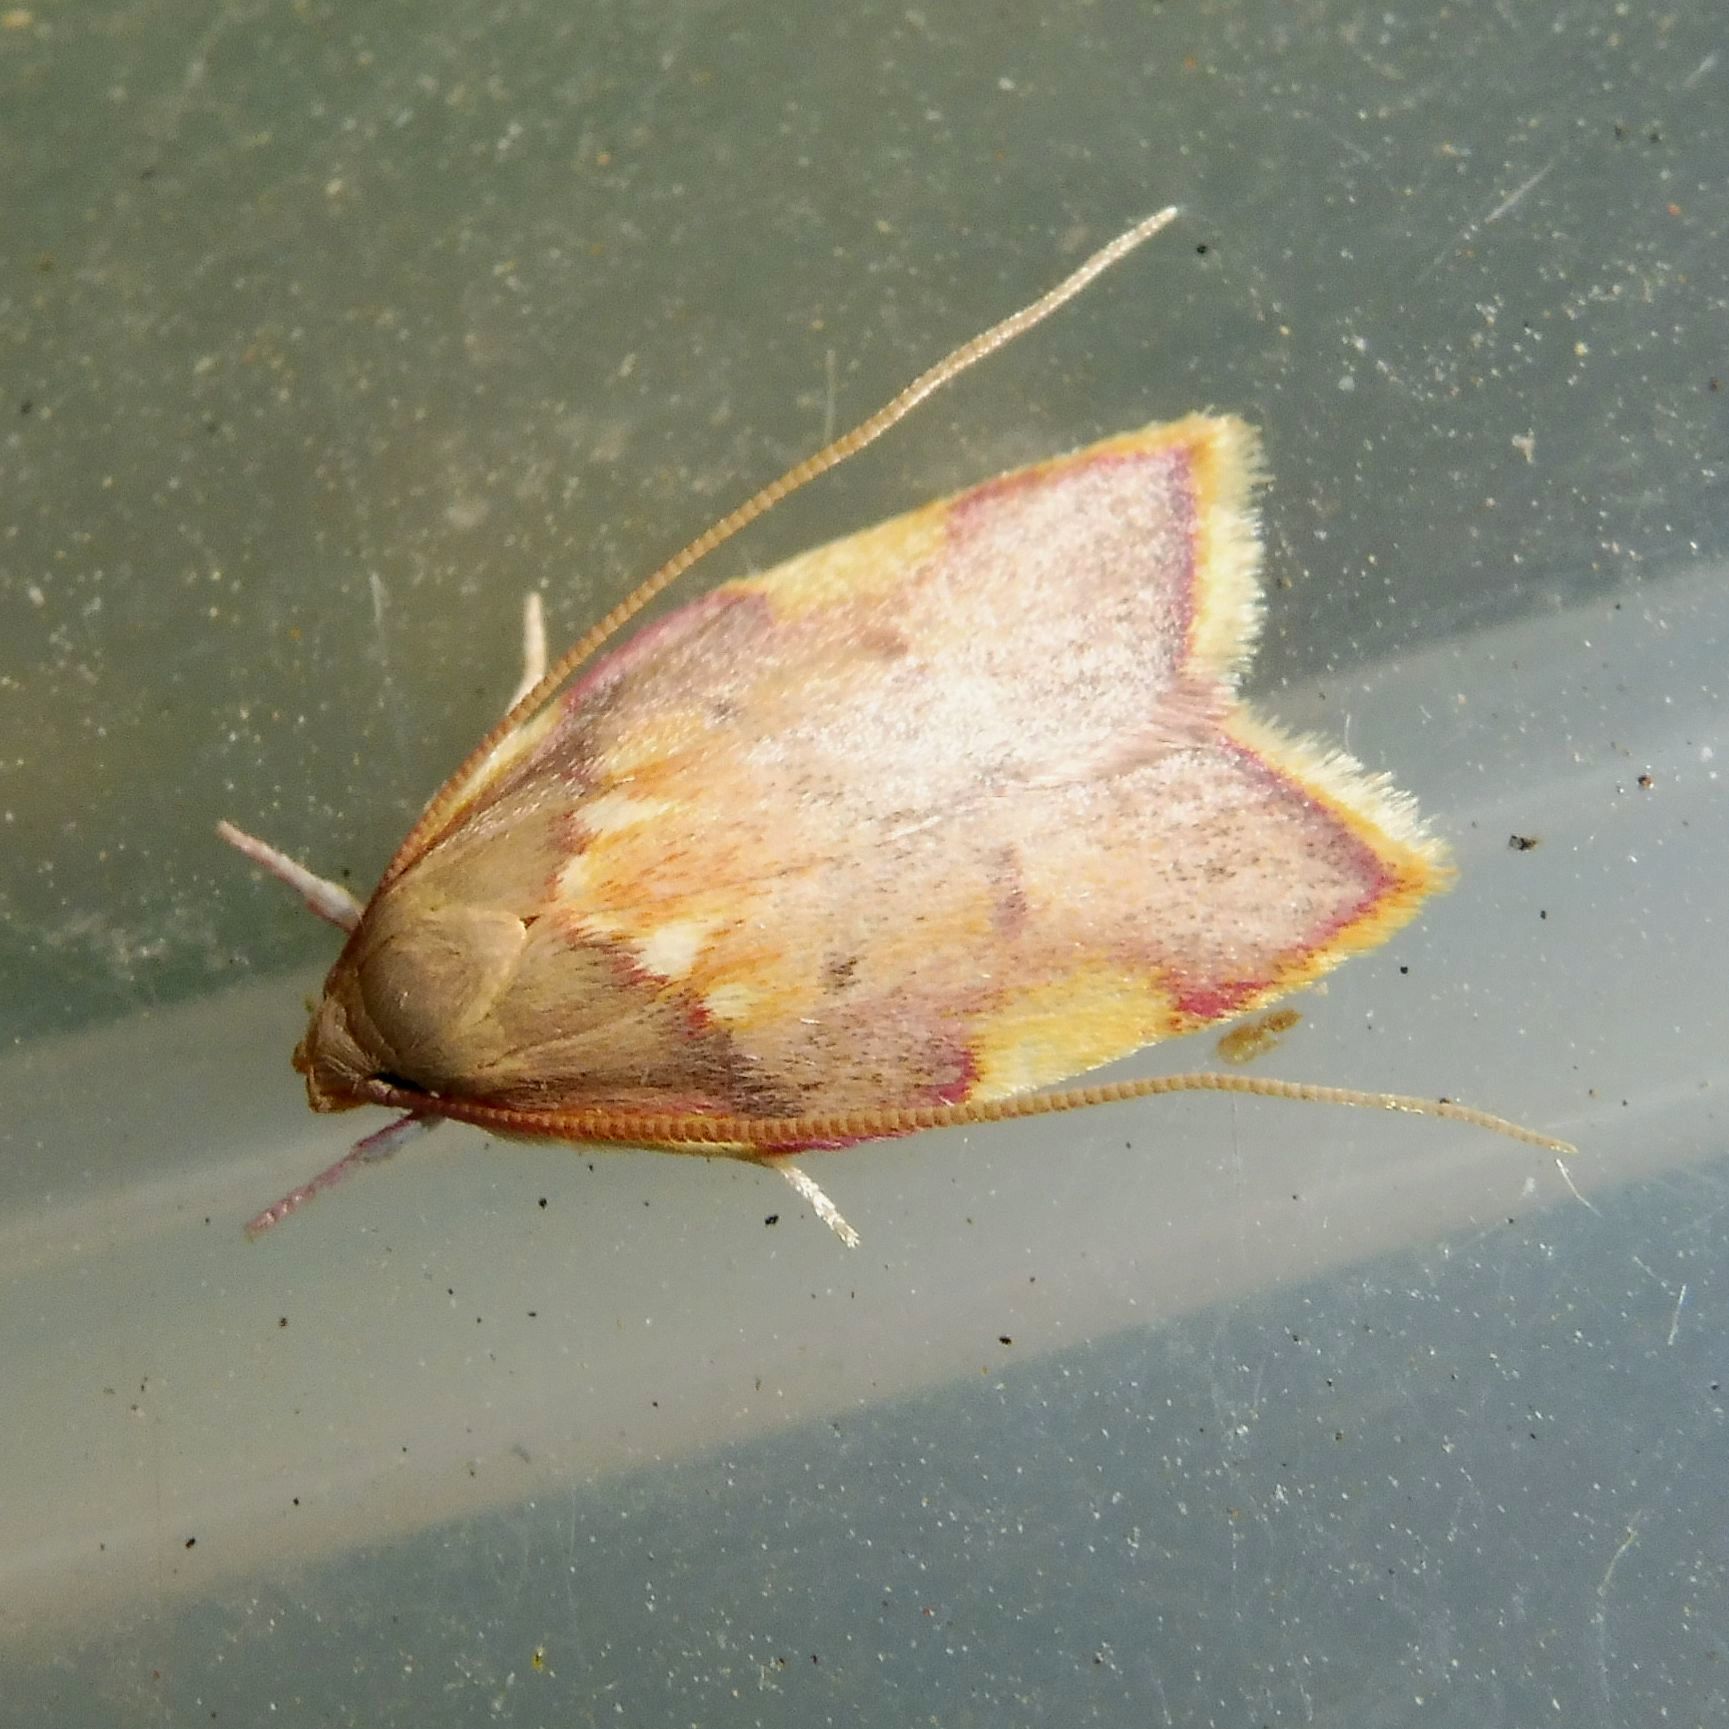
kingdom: Animalia
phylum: Arthropoda
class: Insecta
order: Lepidoptera
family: Peleopodidae
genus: Carcina
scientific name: Carcina quercana
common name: Moth
